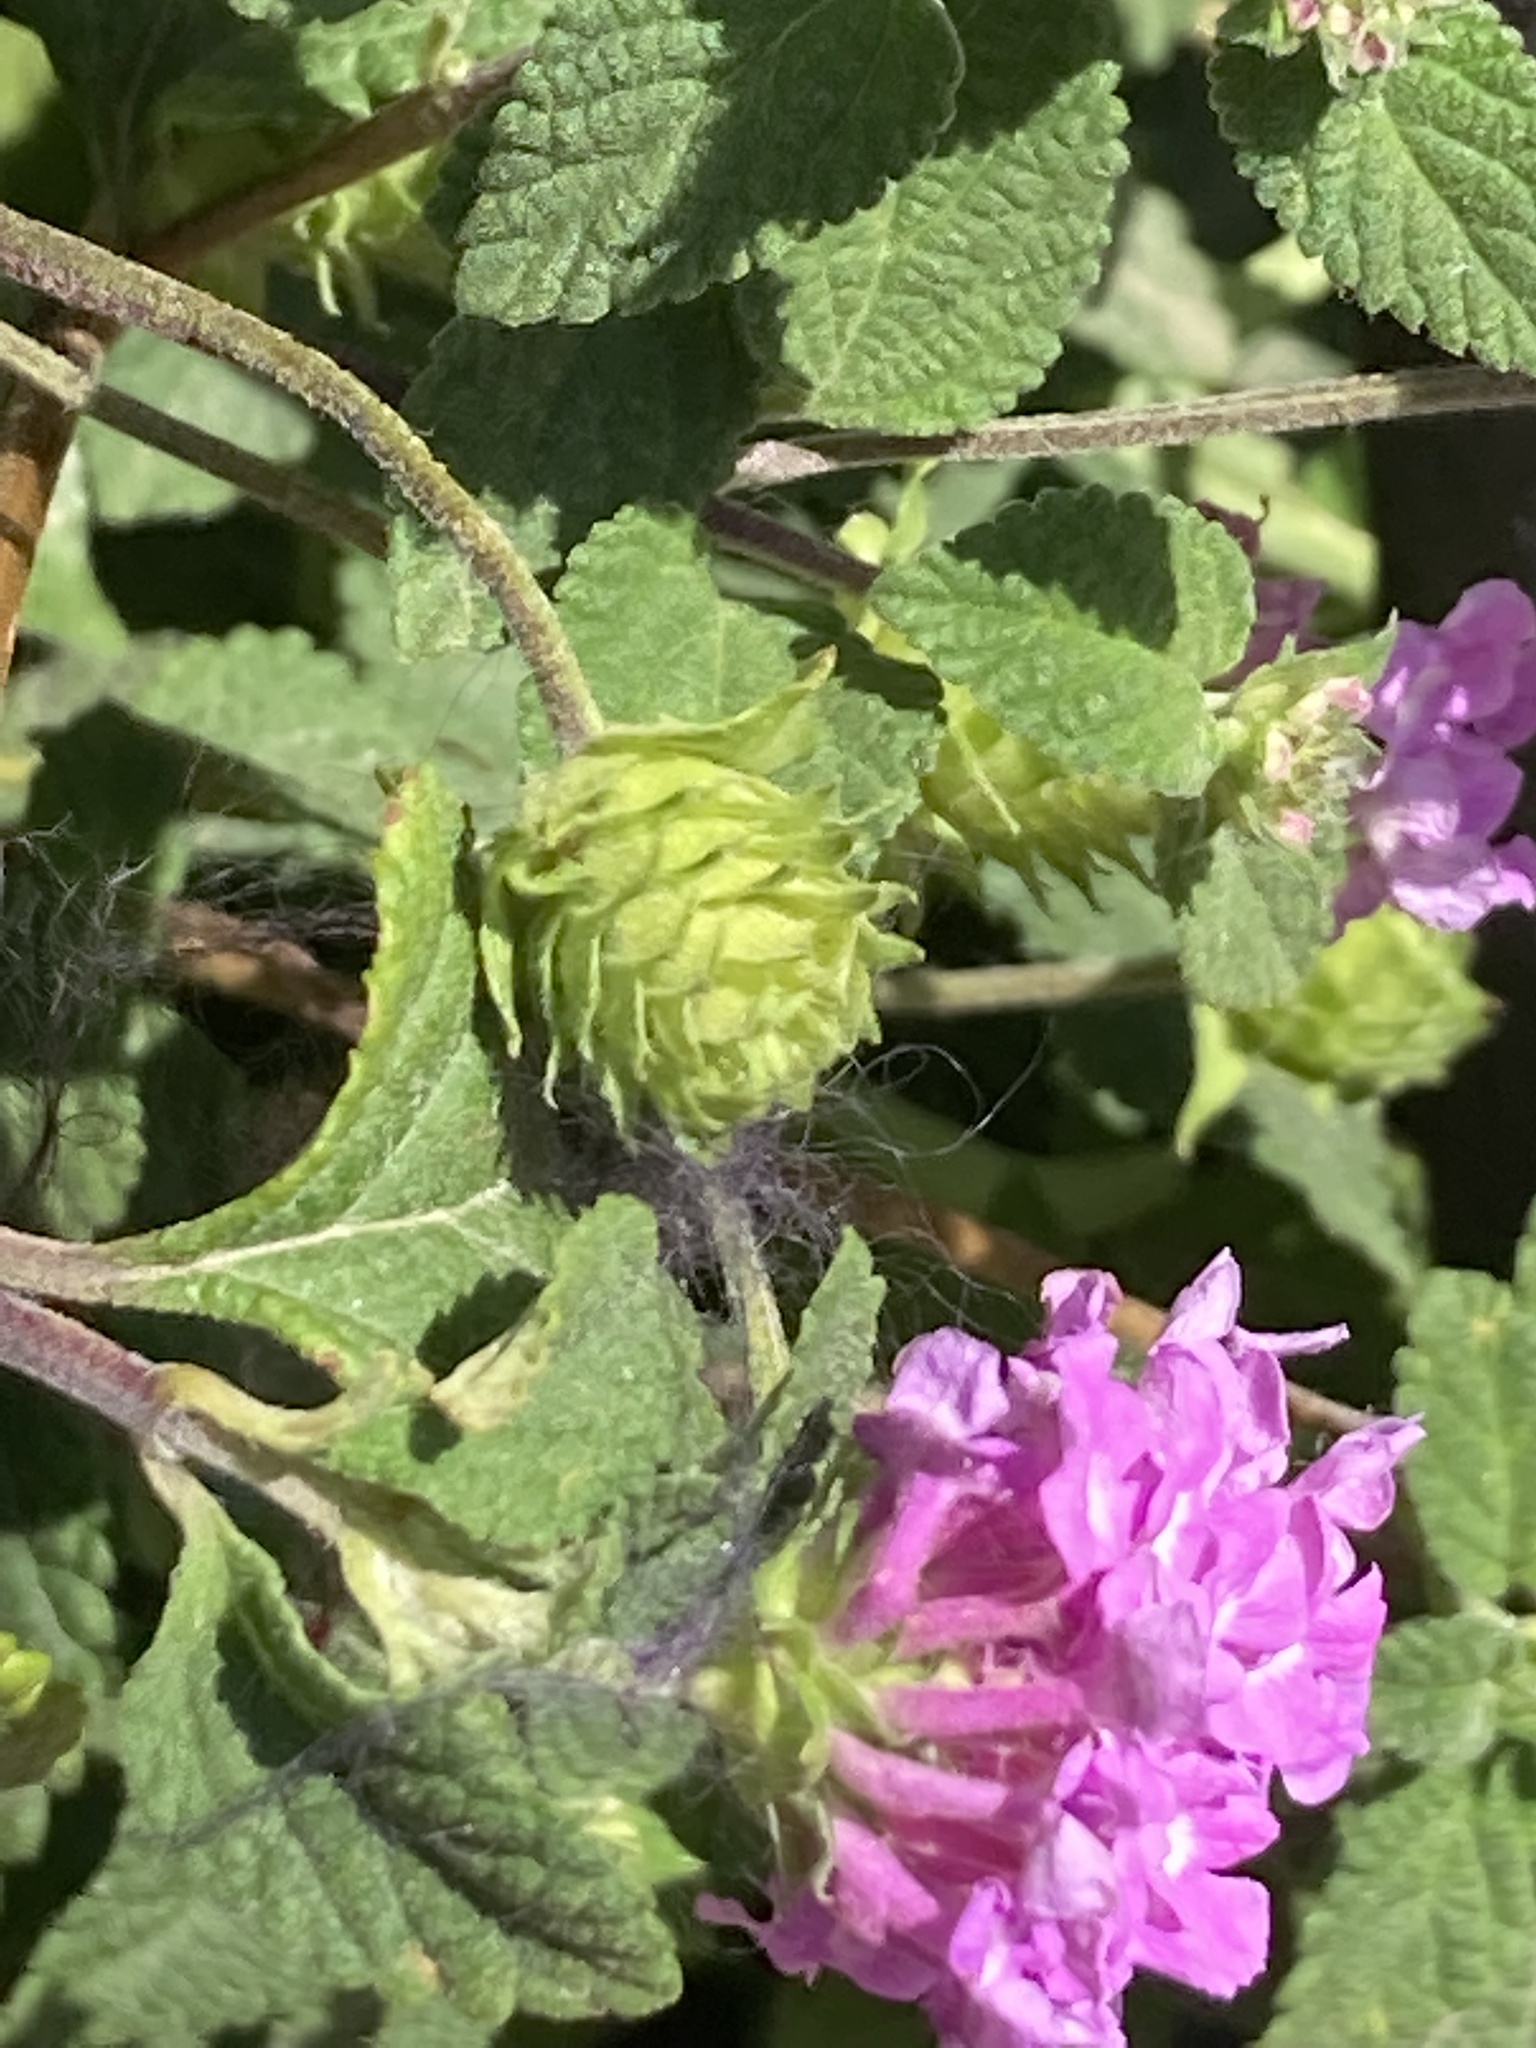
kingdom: Plantae
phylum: Tracheophyta
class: Magnoliopsida
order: Lamiales
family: Verbenaceae
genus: Lantana
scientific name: Lantana montevidensis
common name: Trailing shrubverbena
